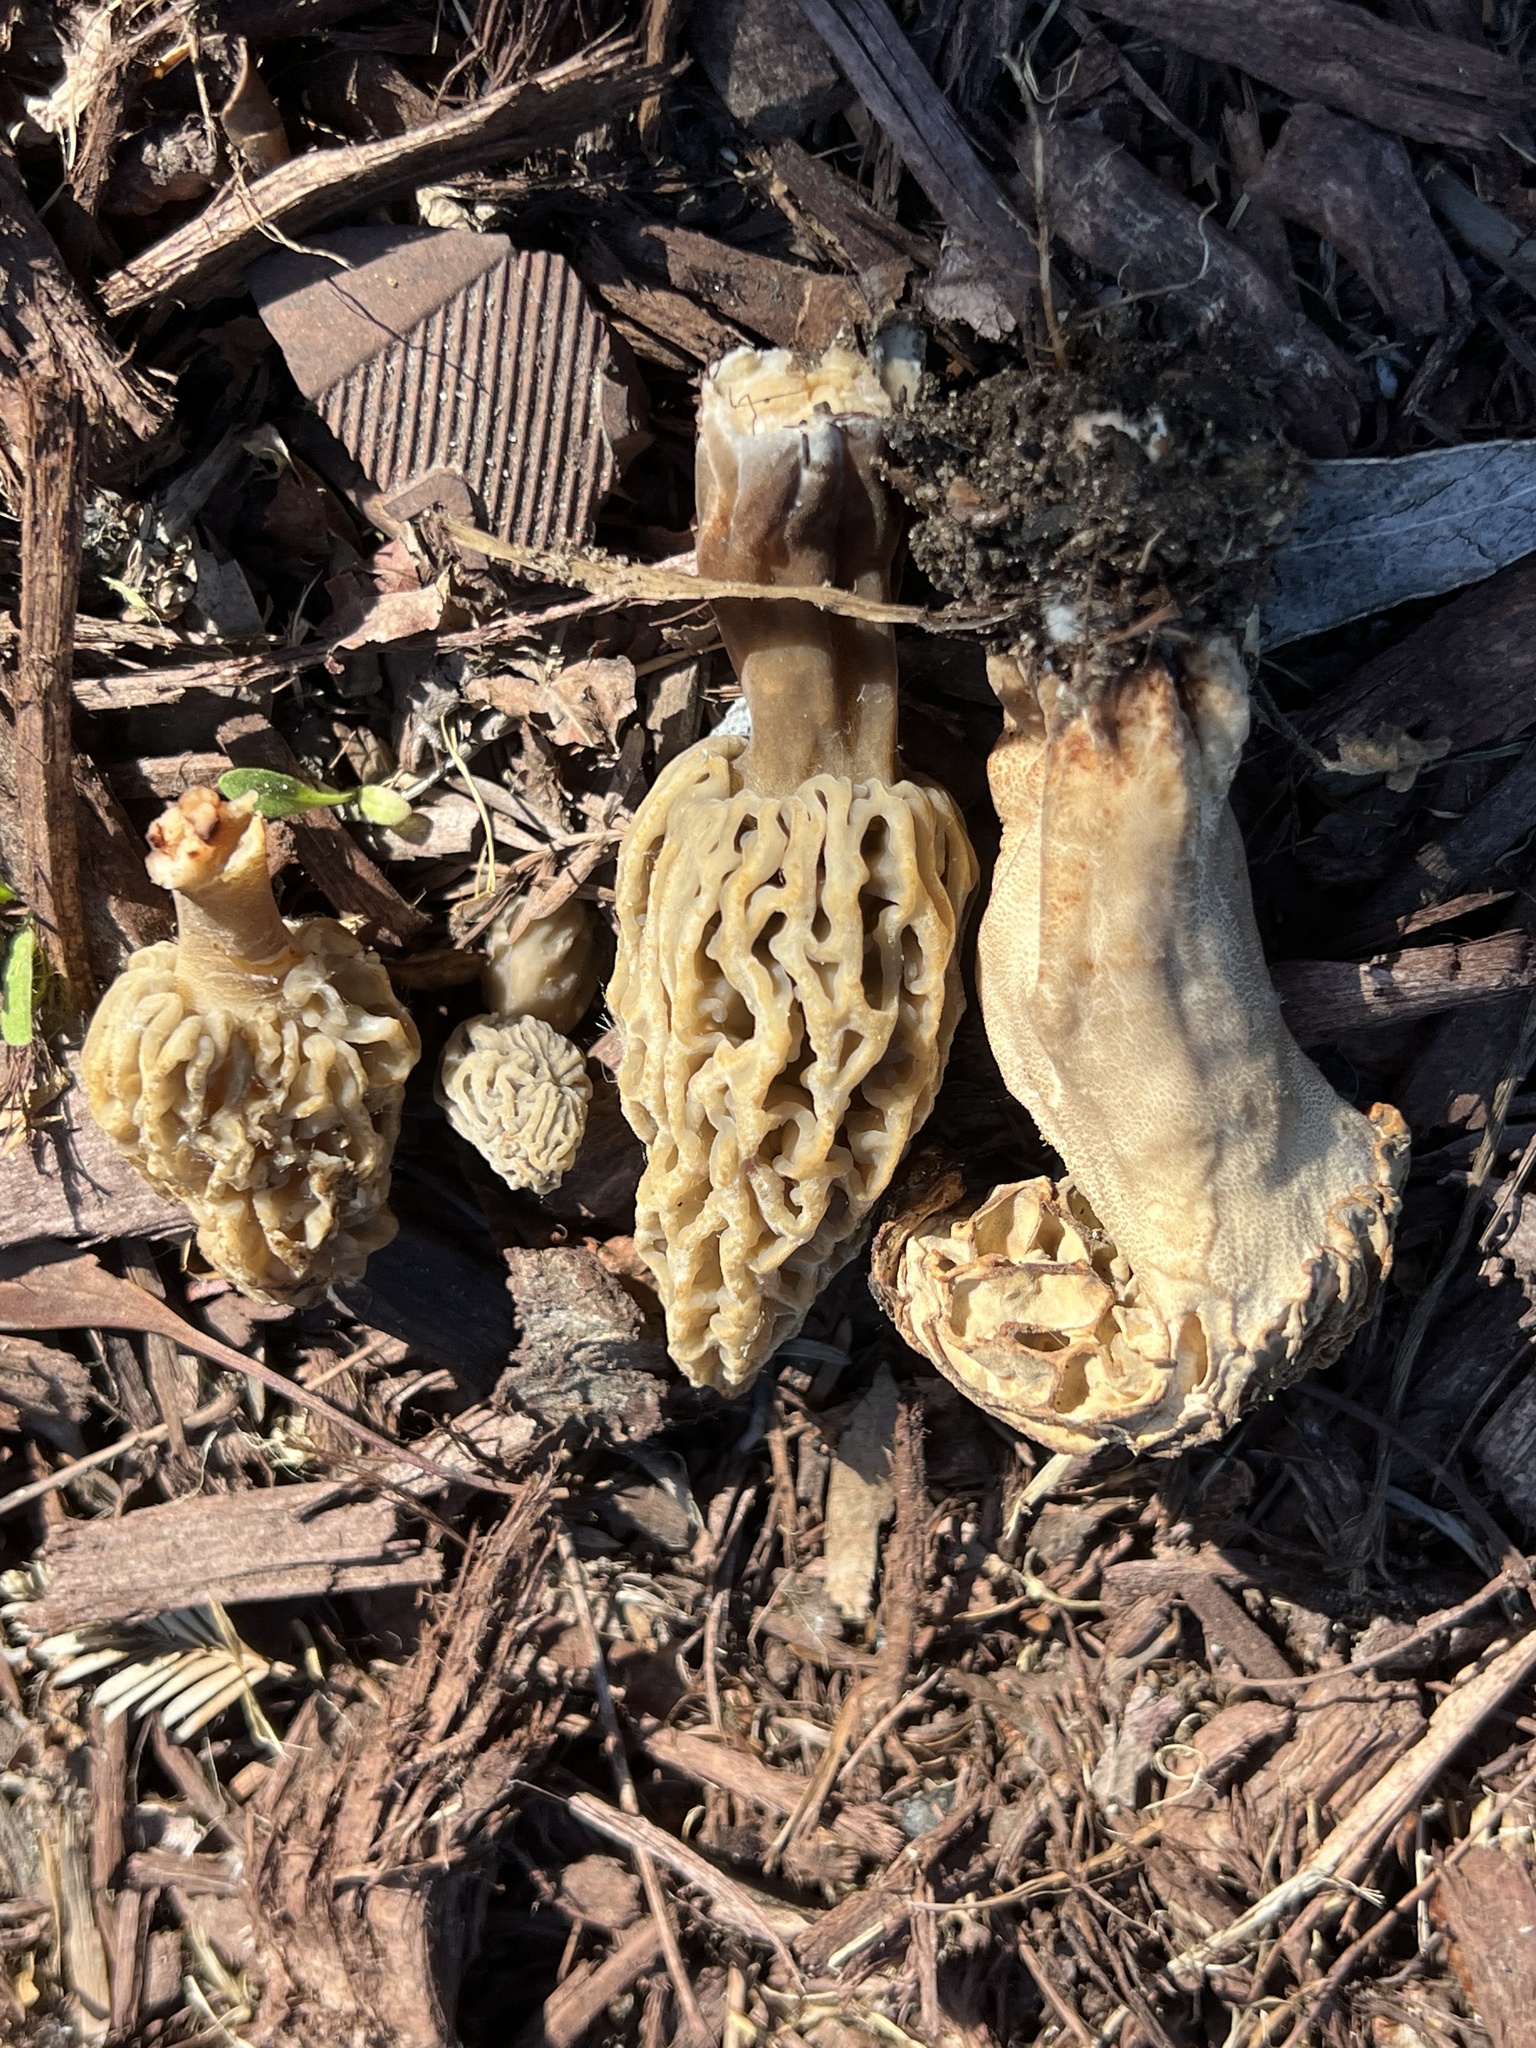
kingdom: Fungi
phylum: Ascomycota
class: Pezizomycetes
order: Pezizales
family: Morchellaceae
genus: Morchella
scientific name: Morchella rufobrunnea
